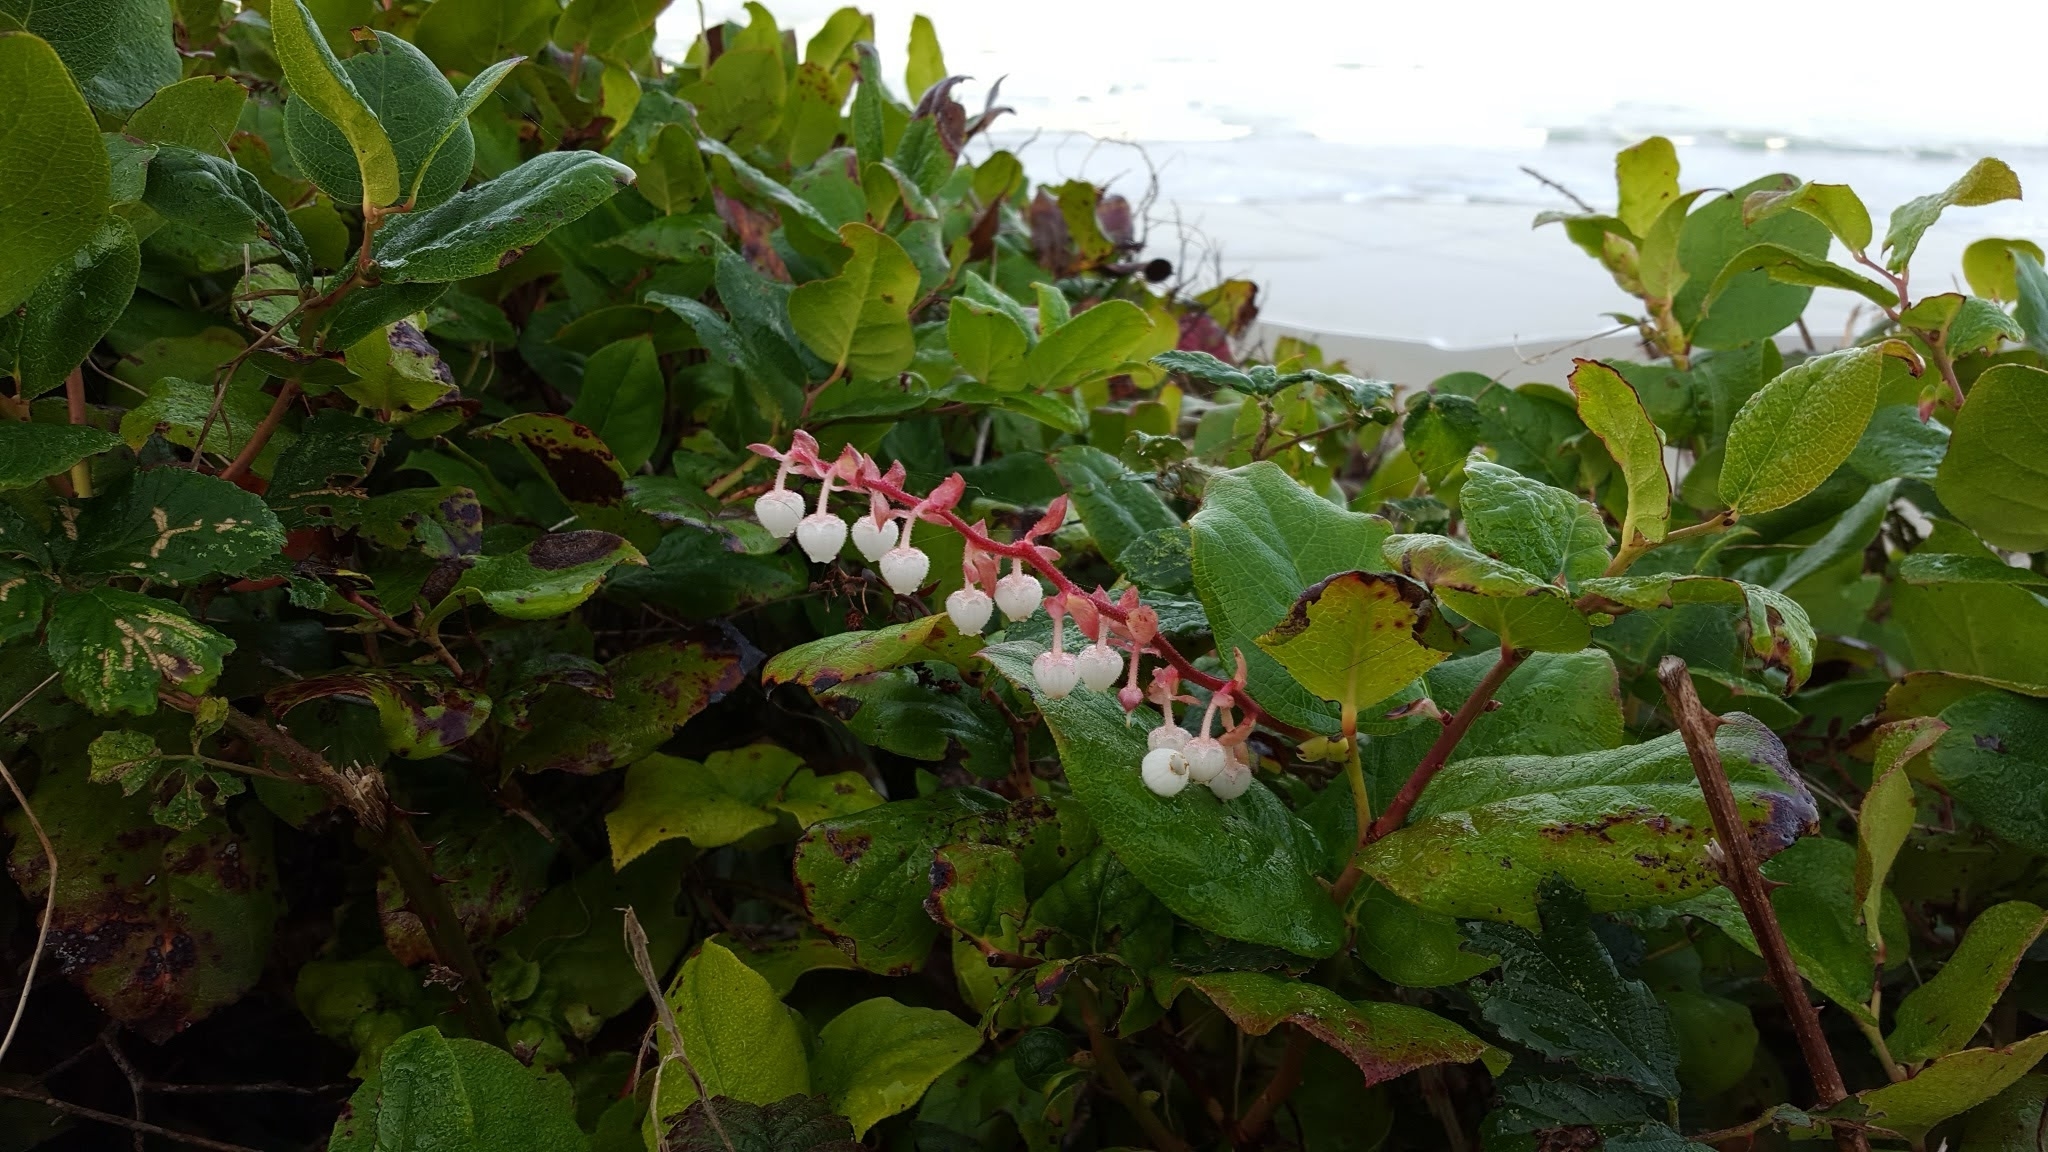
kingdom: Plantae
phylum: Tracheophyta
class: Magnoliopsida
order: Ericales
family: Ericaceae
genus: Gaultheria
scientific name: Gaultheria shallon
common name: Shallon
